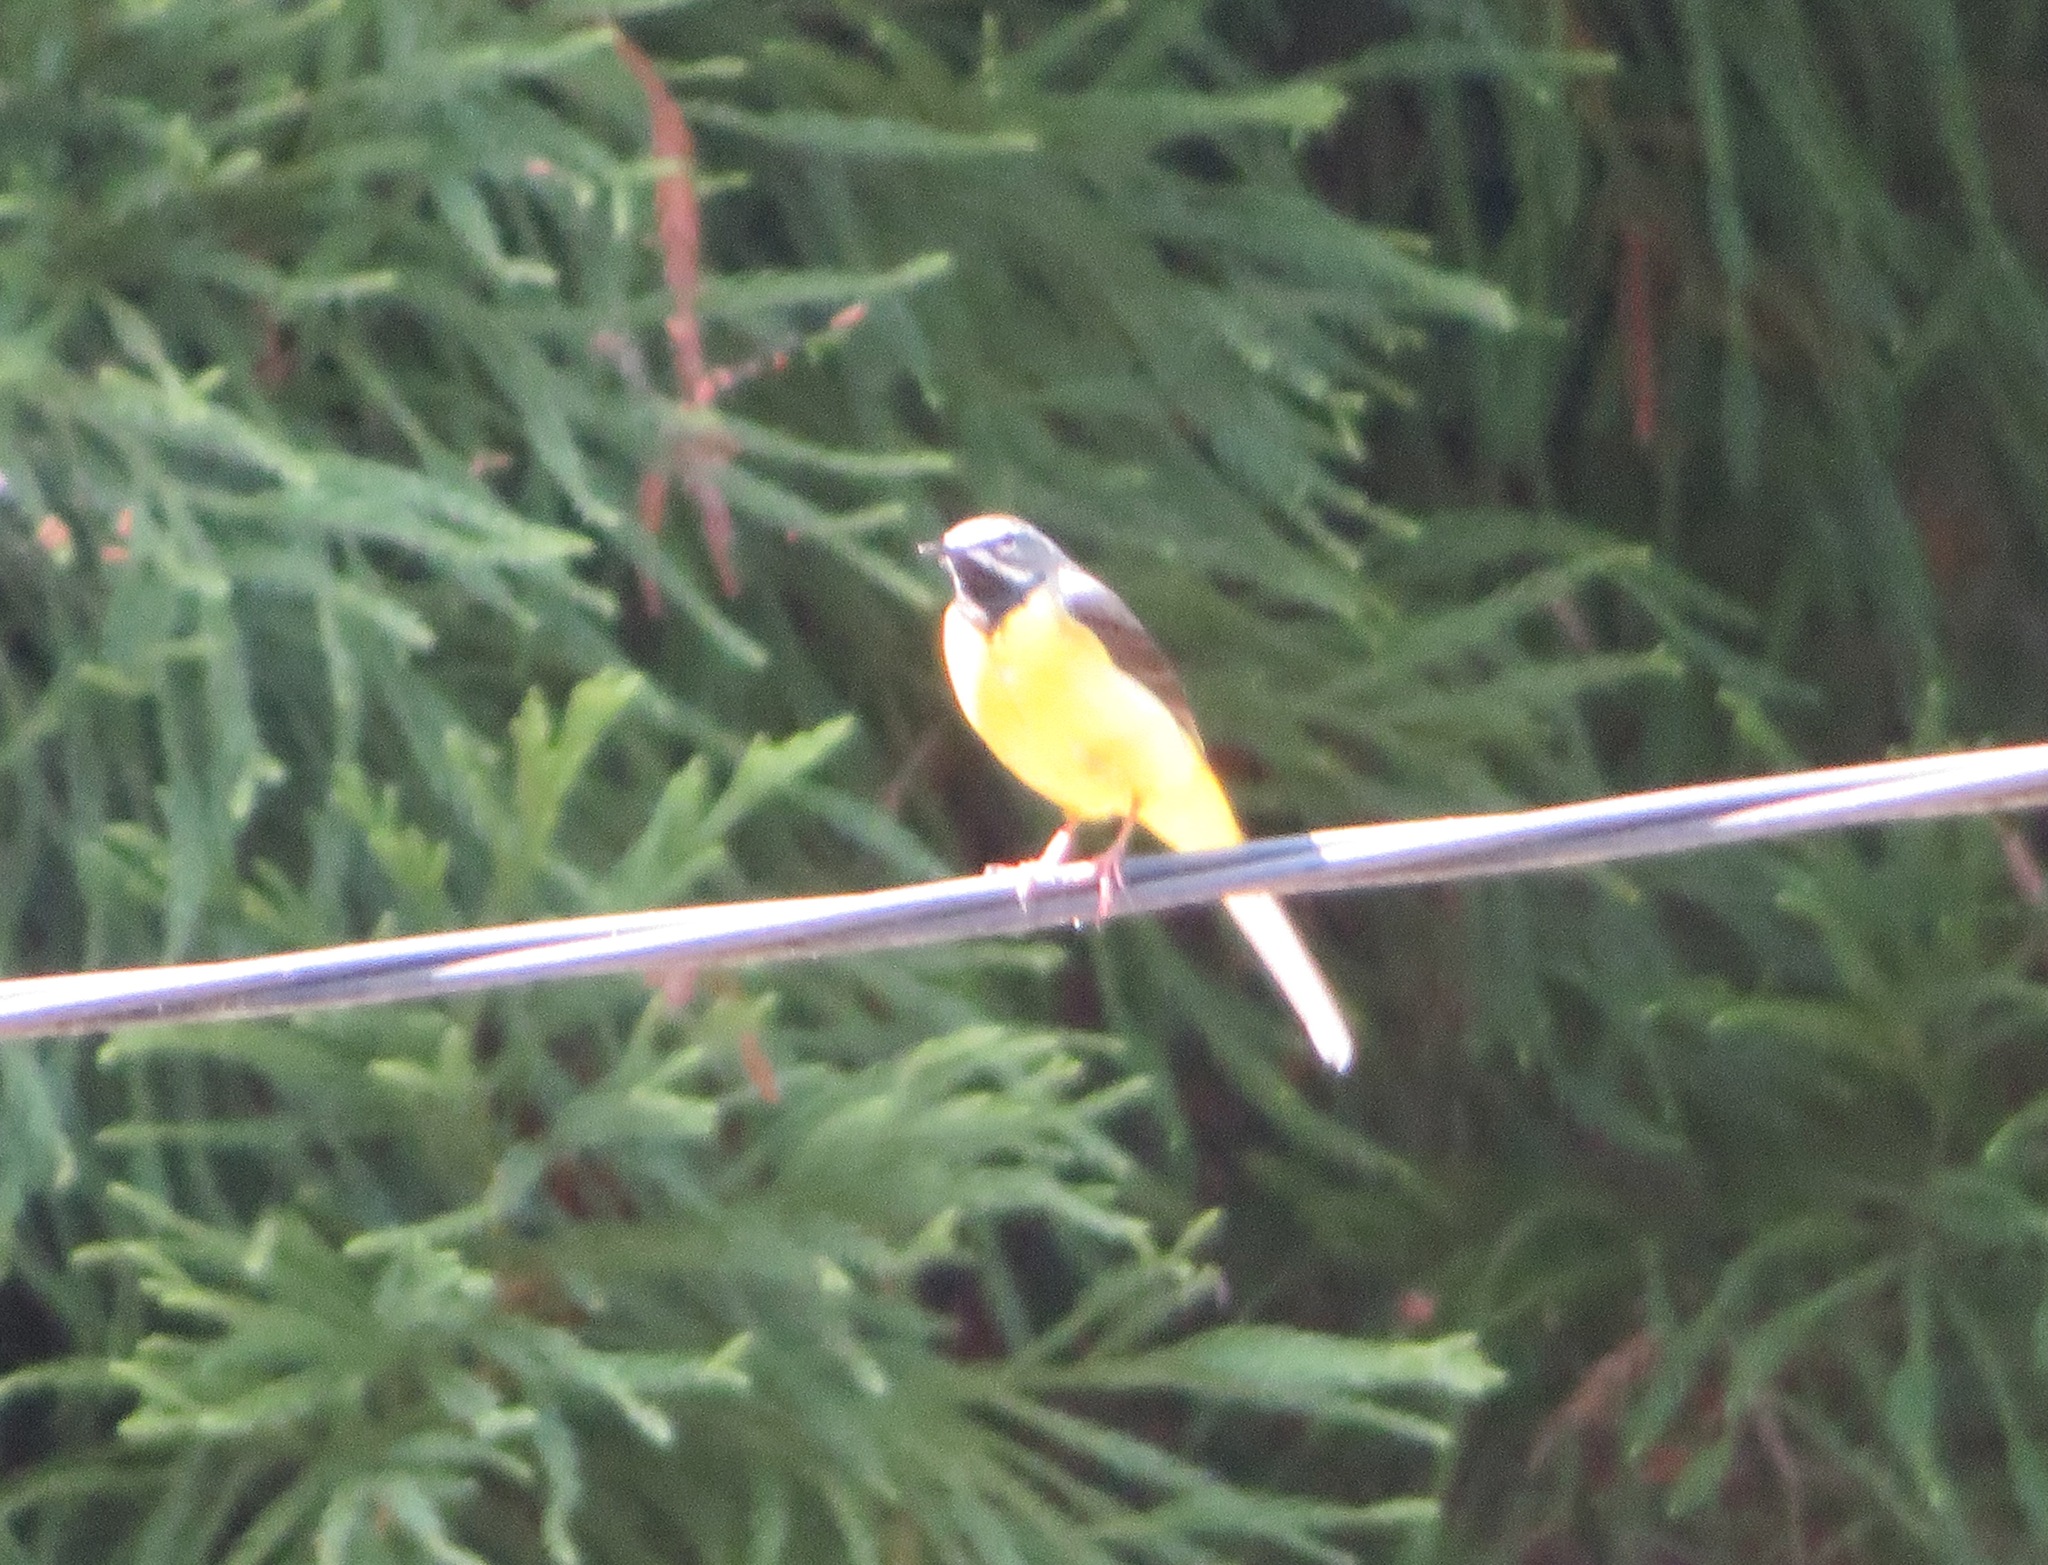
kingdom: Animalia
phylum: Chordata
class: Aves
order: Passeriformes
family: Motacillidae
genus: Motacilla
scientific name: Motacilla cinerea
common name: Grey wagtail
